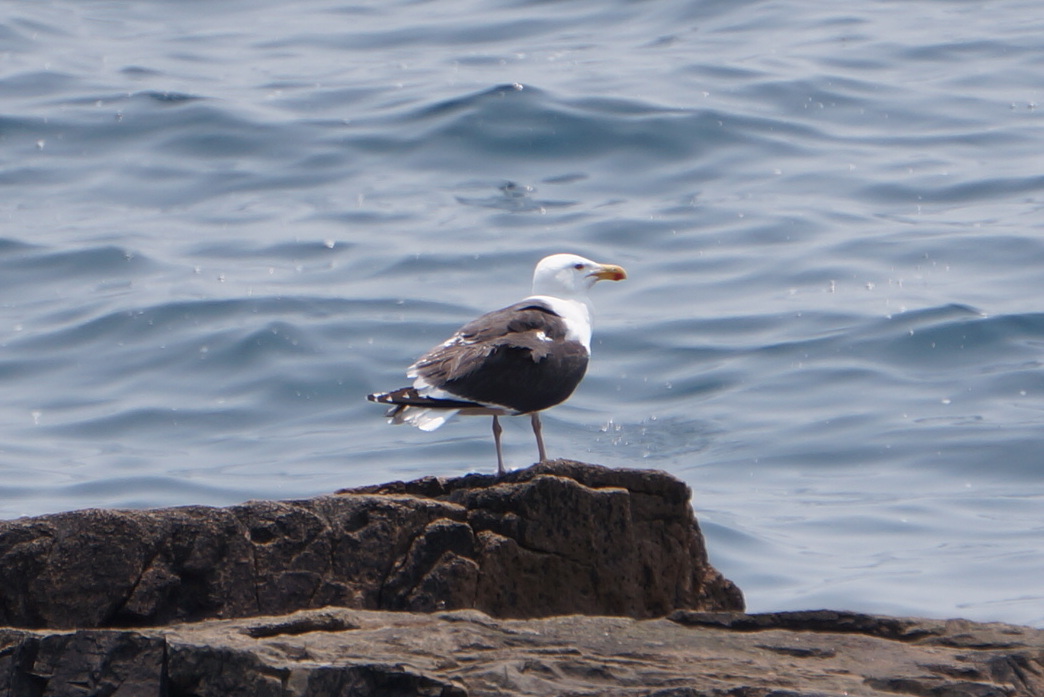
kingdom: Animalia
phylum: Chordata
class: Aves
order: Charadriiformes
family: Laridae
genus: Larus
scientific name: Larus marinus
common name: Great black-backed gull
